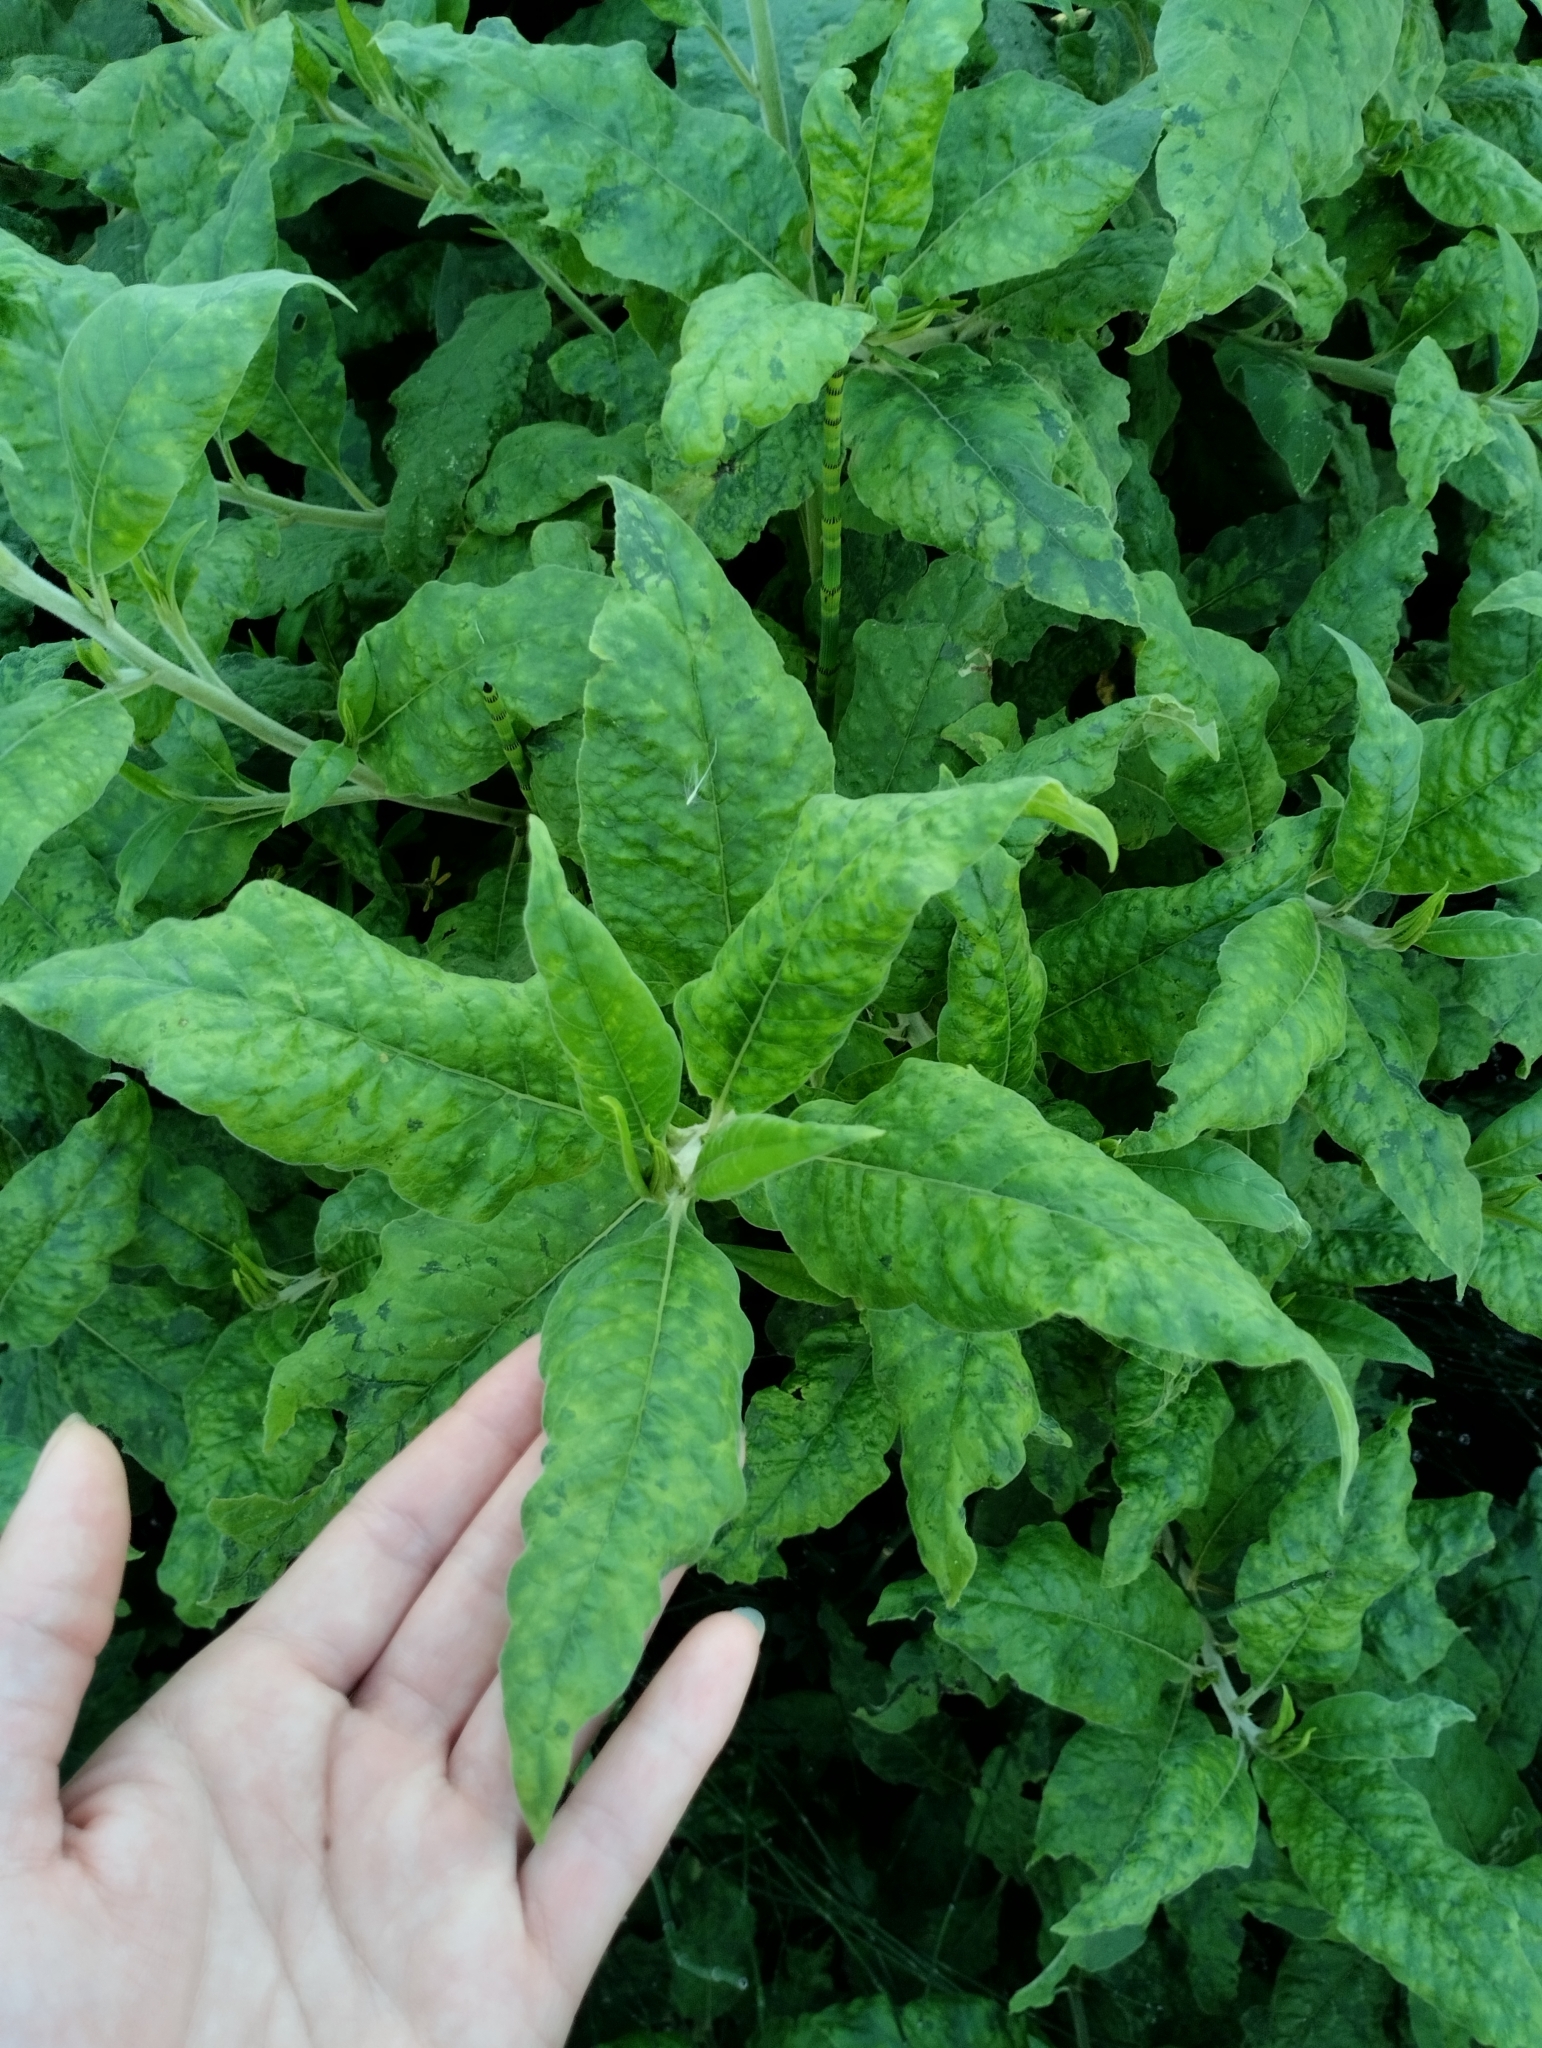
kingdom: Plantae
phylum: Tracheophyta
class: Magnoliopsida
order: Asterales
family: Asteraceae
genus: Trixis
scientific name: Trixis praestans
